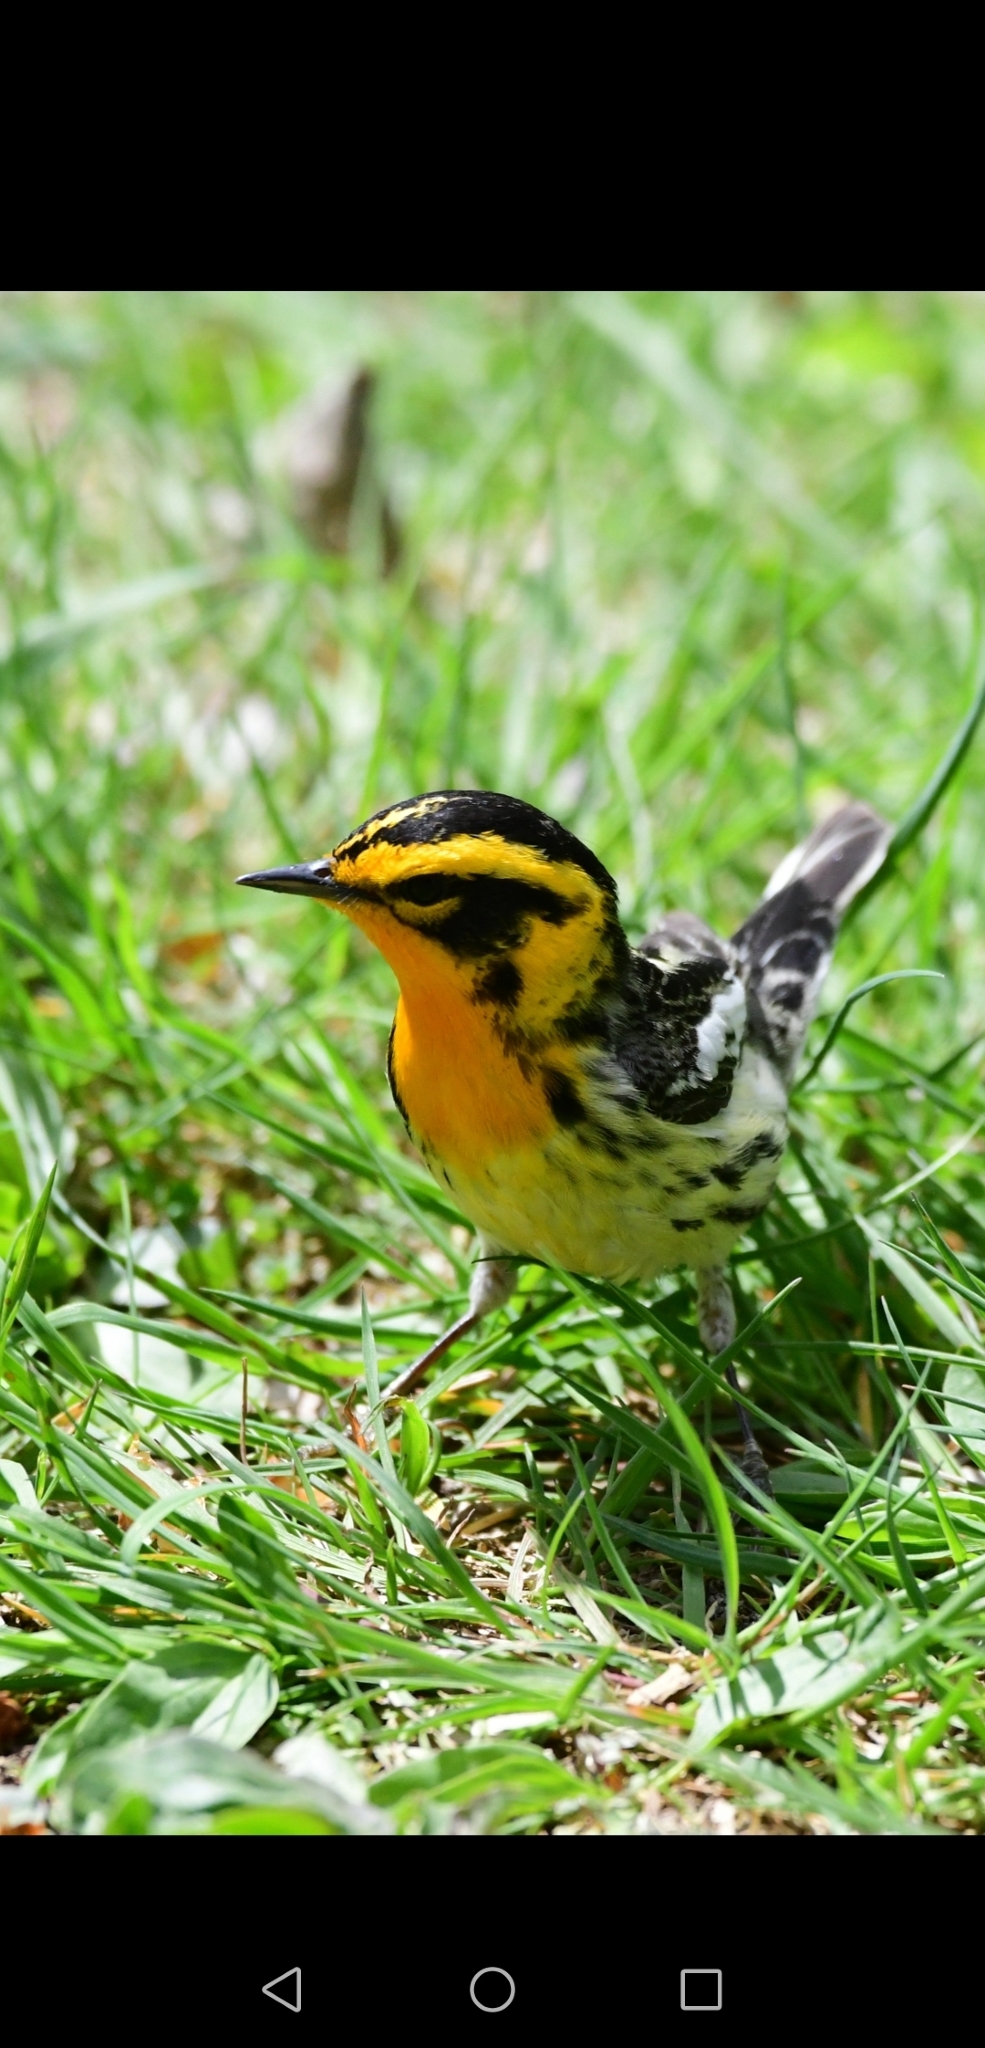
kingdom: Animalia
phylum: Chordata
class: Aves
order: Passeriformes
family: Parulidae
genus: Setophaga
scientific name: Setophaga fusca
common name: Blackburnian warbler
